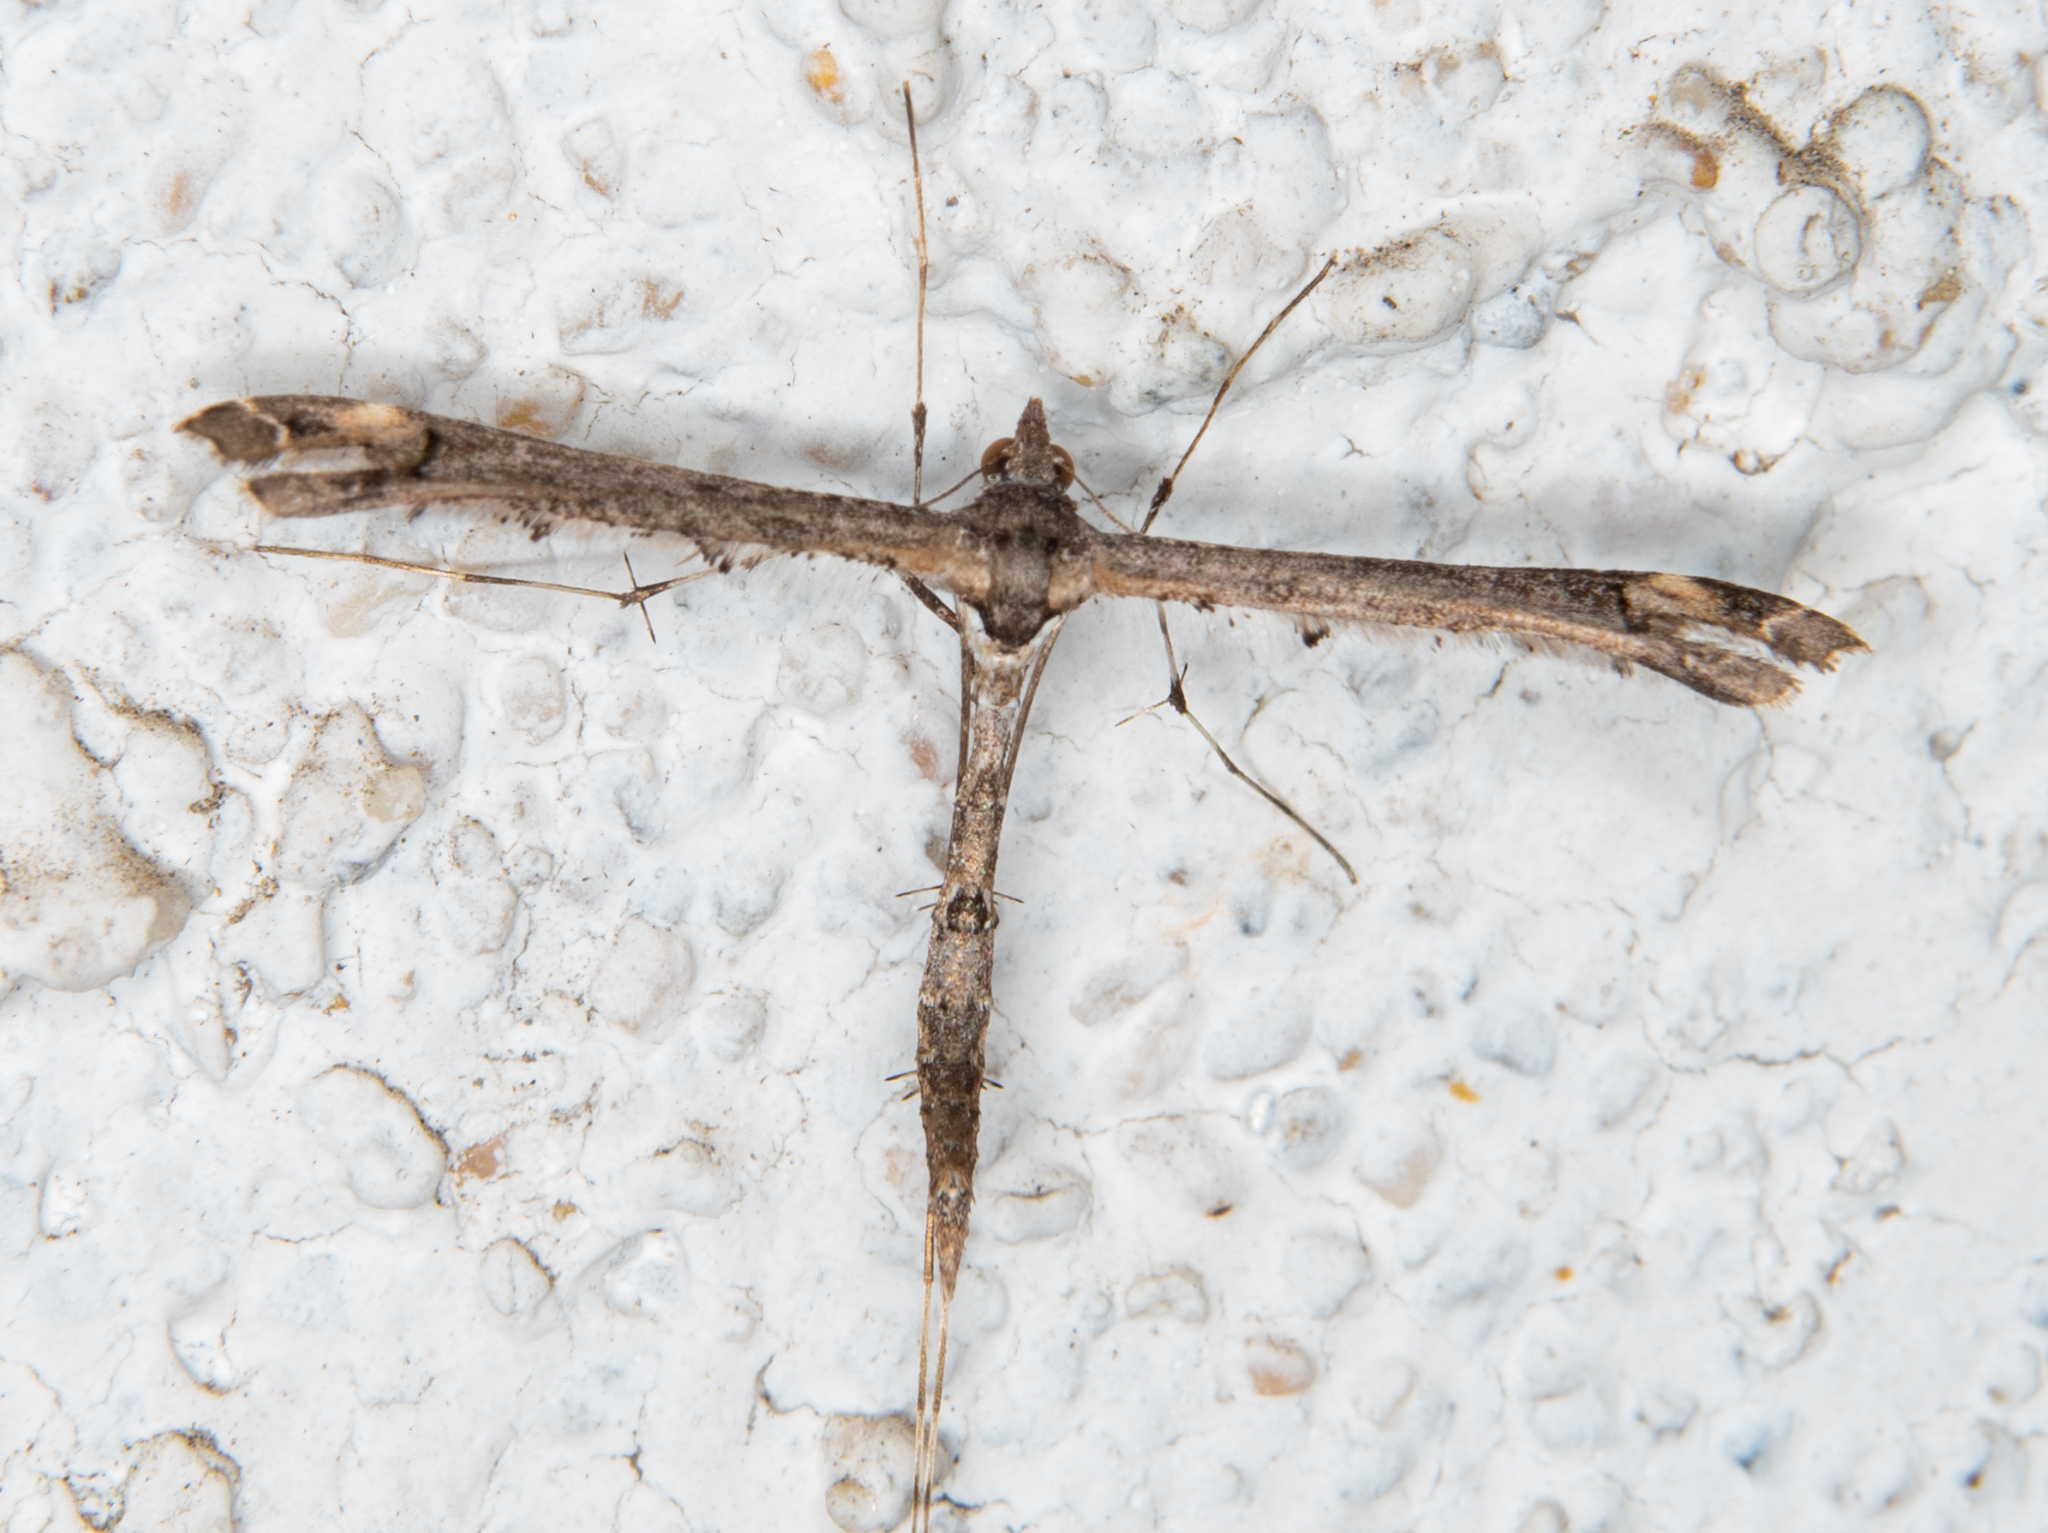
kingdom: Animalia
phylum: Arthropoda
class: Insecta
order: Lepidoptera
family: Pterophoridae
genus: Anstenoptilia
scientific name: Anstenoptilia marmarodactyla
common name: Moth
